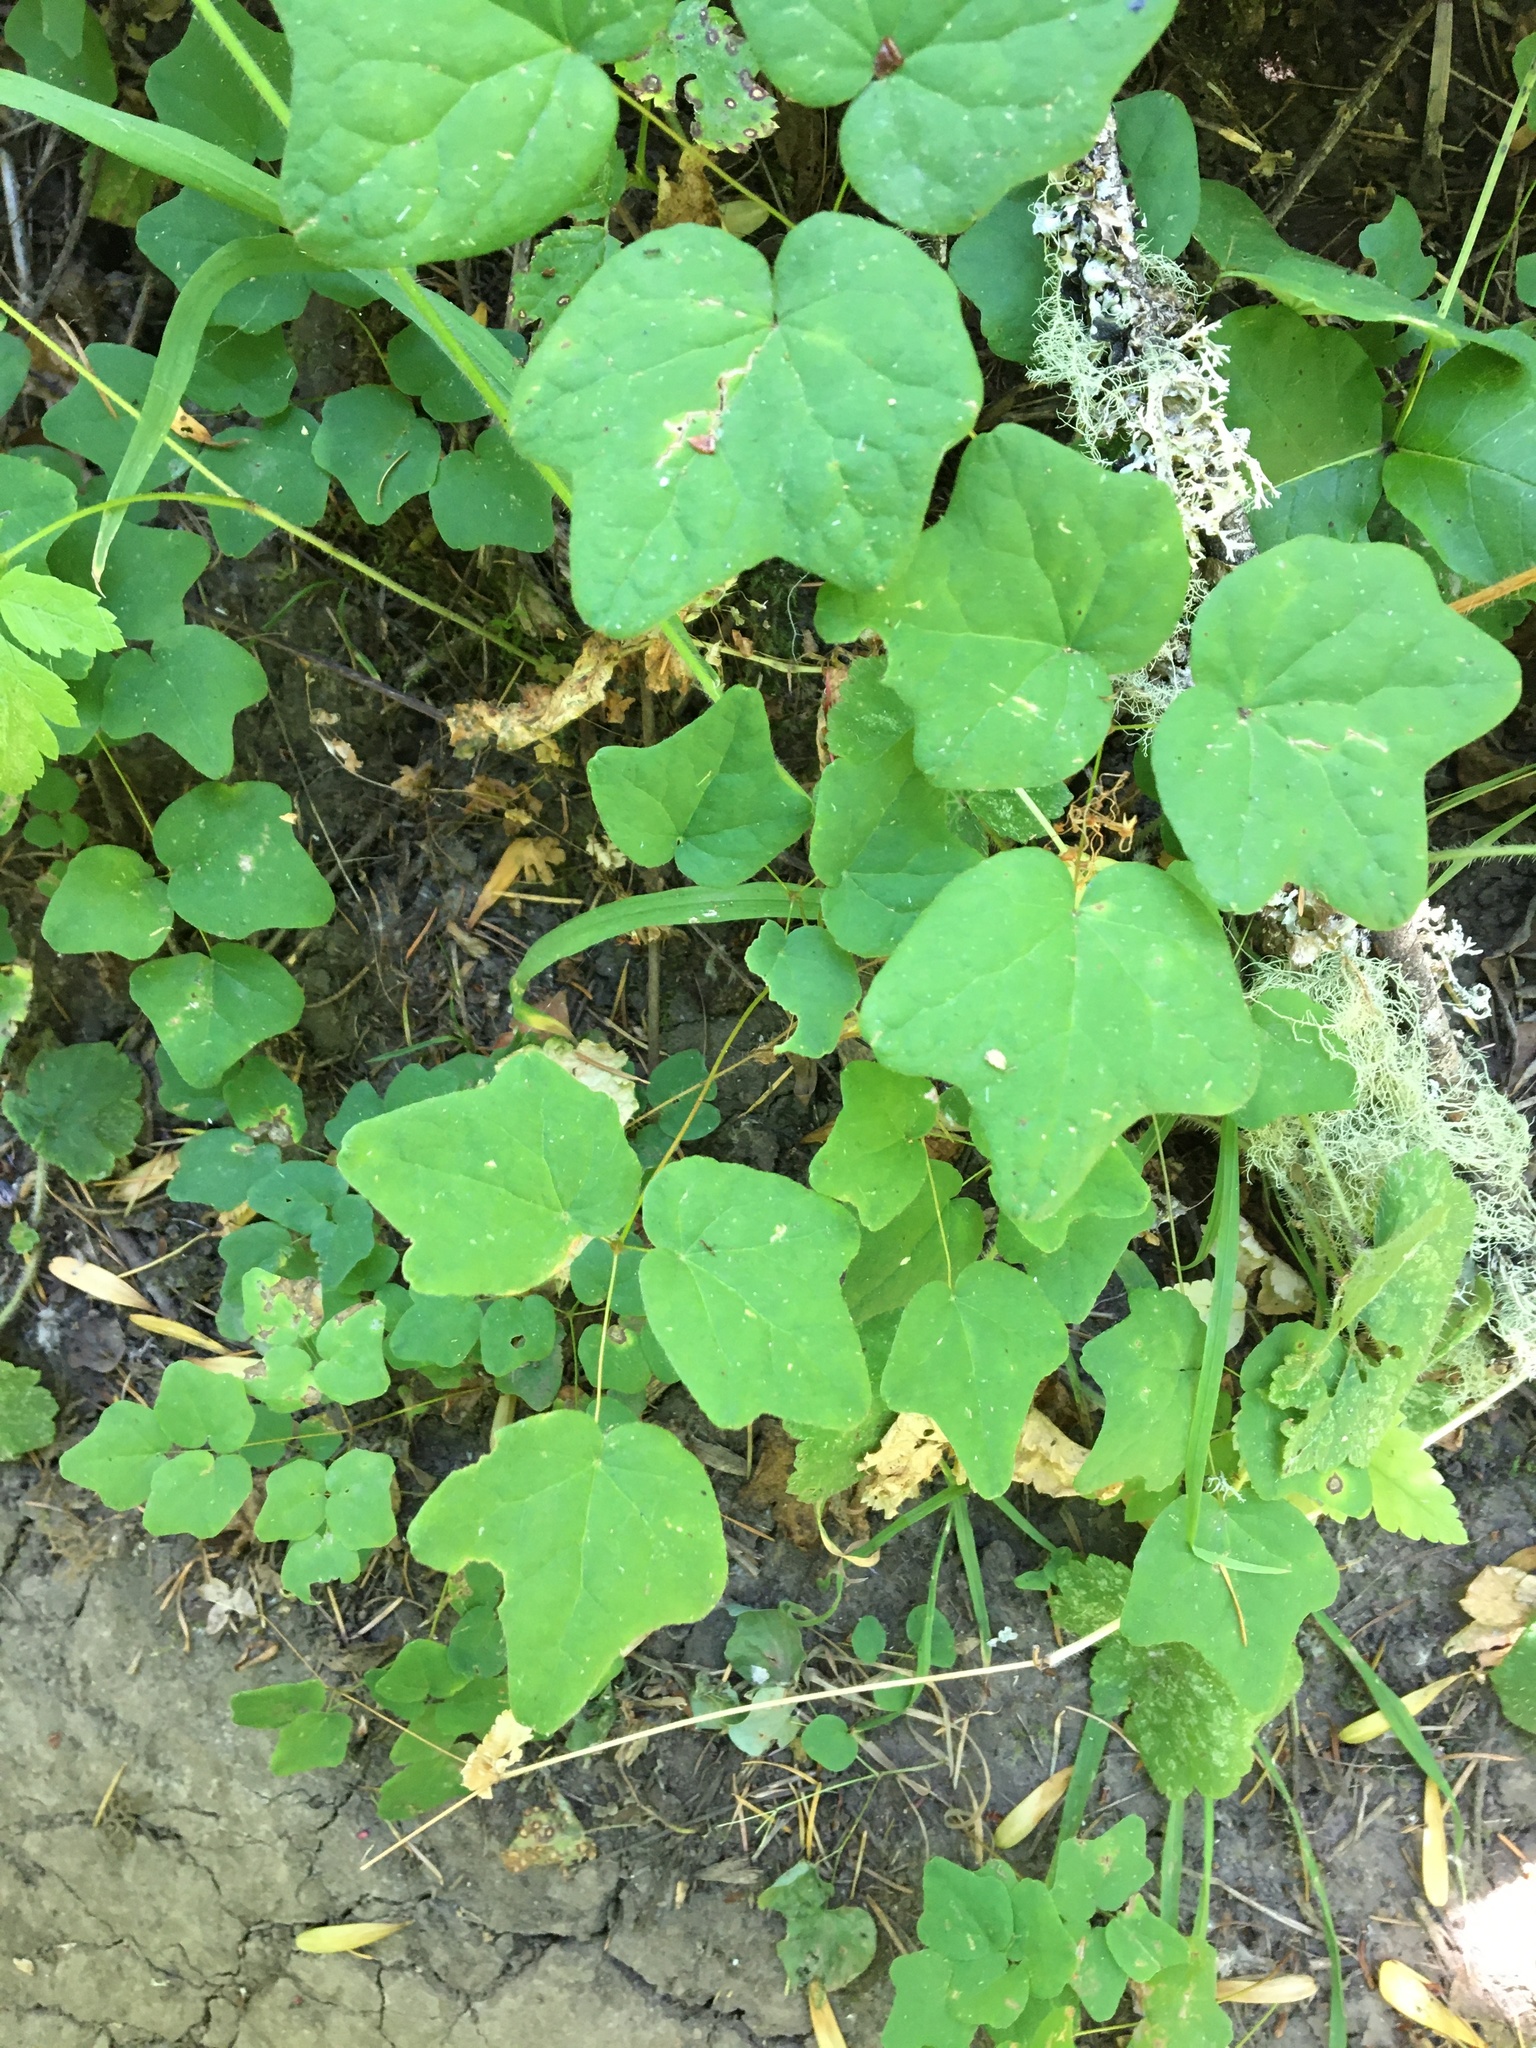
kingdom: Plantae
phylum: Tracheophyta
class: Magnoliopsida
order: Ranunculales
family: Berberidaceae
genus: Vancouveria
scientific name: Vancouveria hexandra
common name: Northern inside-out-flower
